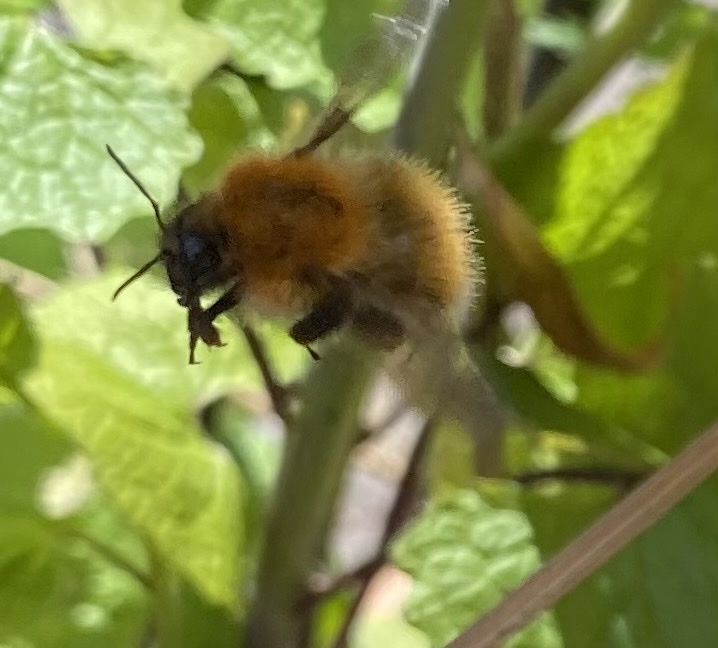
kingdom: Animalia
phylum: Arthropoda
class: Insecta
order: Hymenoptera
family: Apidae
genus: Bombus
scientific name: Bombus pascuorum
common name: Common carder bee
